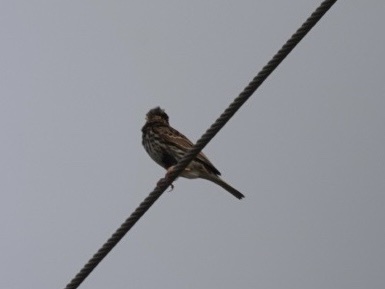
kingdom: Animalia
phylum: Chordata
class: Aves
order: Passeriformes
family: Passerellidae
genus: Passerculus
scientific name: Passerculus sandwichensis
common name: Savannah sparrow
